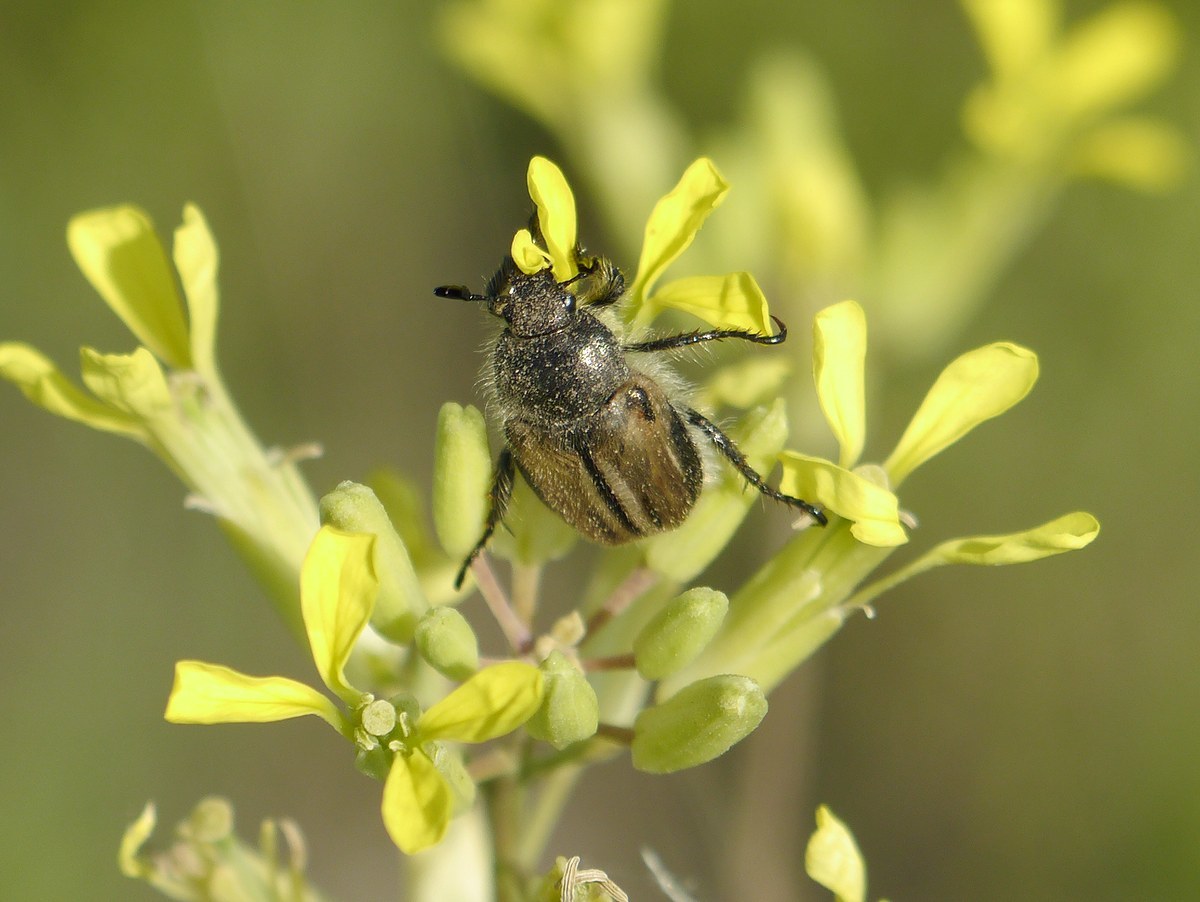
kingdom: Animalia
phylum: Arthropoda
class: Insecta
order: Coleoptera
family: Scarabaeidae
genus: Blitopertha
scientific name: Blitopertha lineolata
